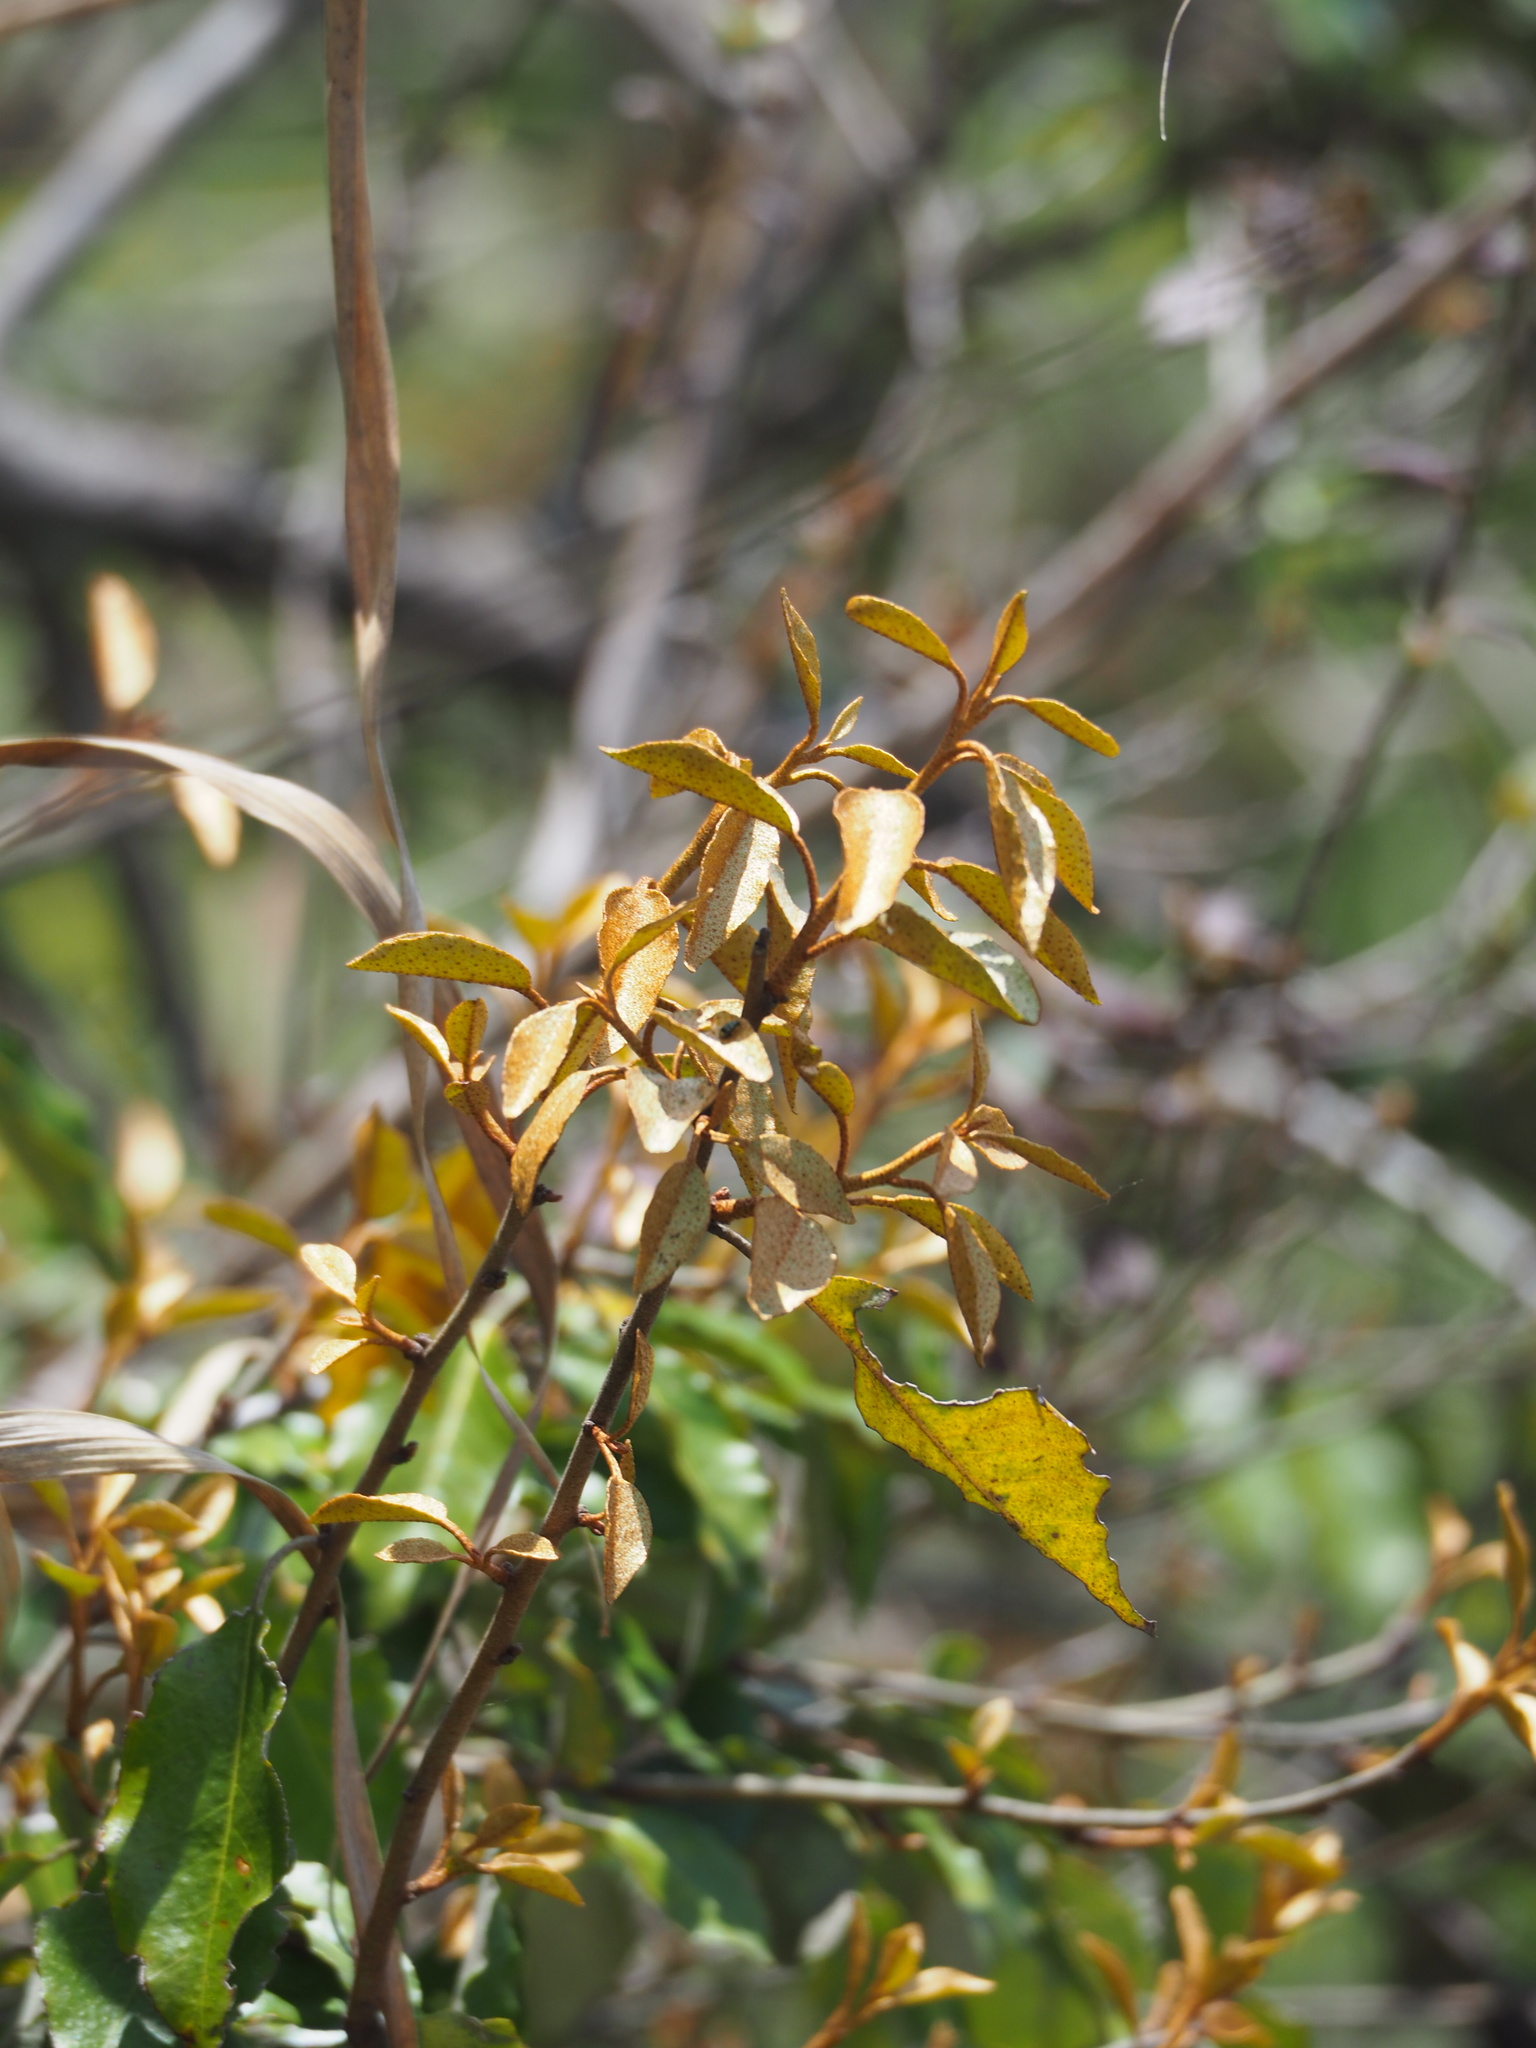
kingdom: Plantae
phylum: Tracheophyta
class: Magnoliopsida
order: Rosales
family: Elaeagnaceae
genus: Elaeagnus
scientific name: Elaeagnus thunbergii
